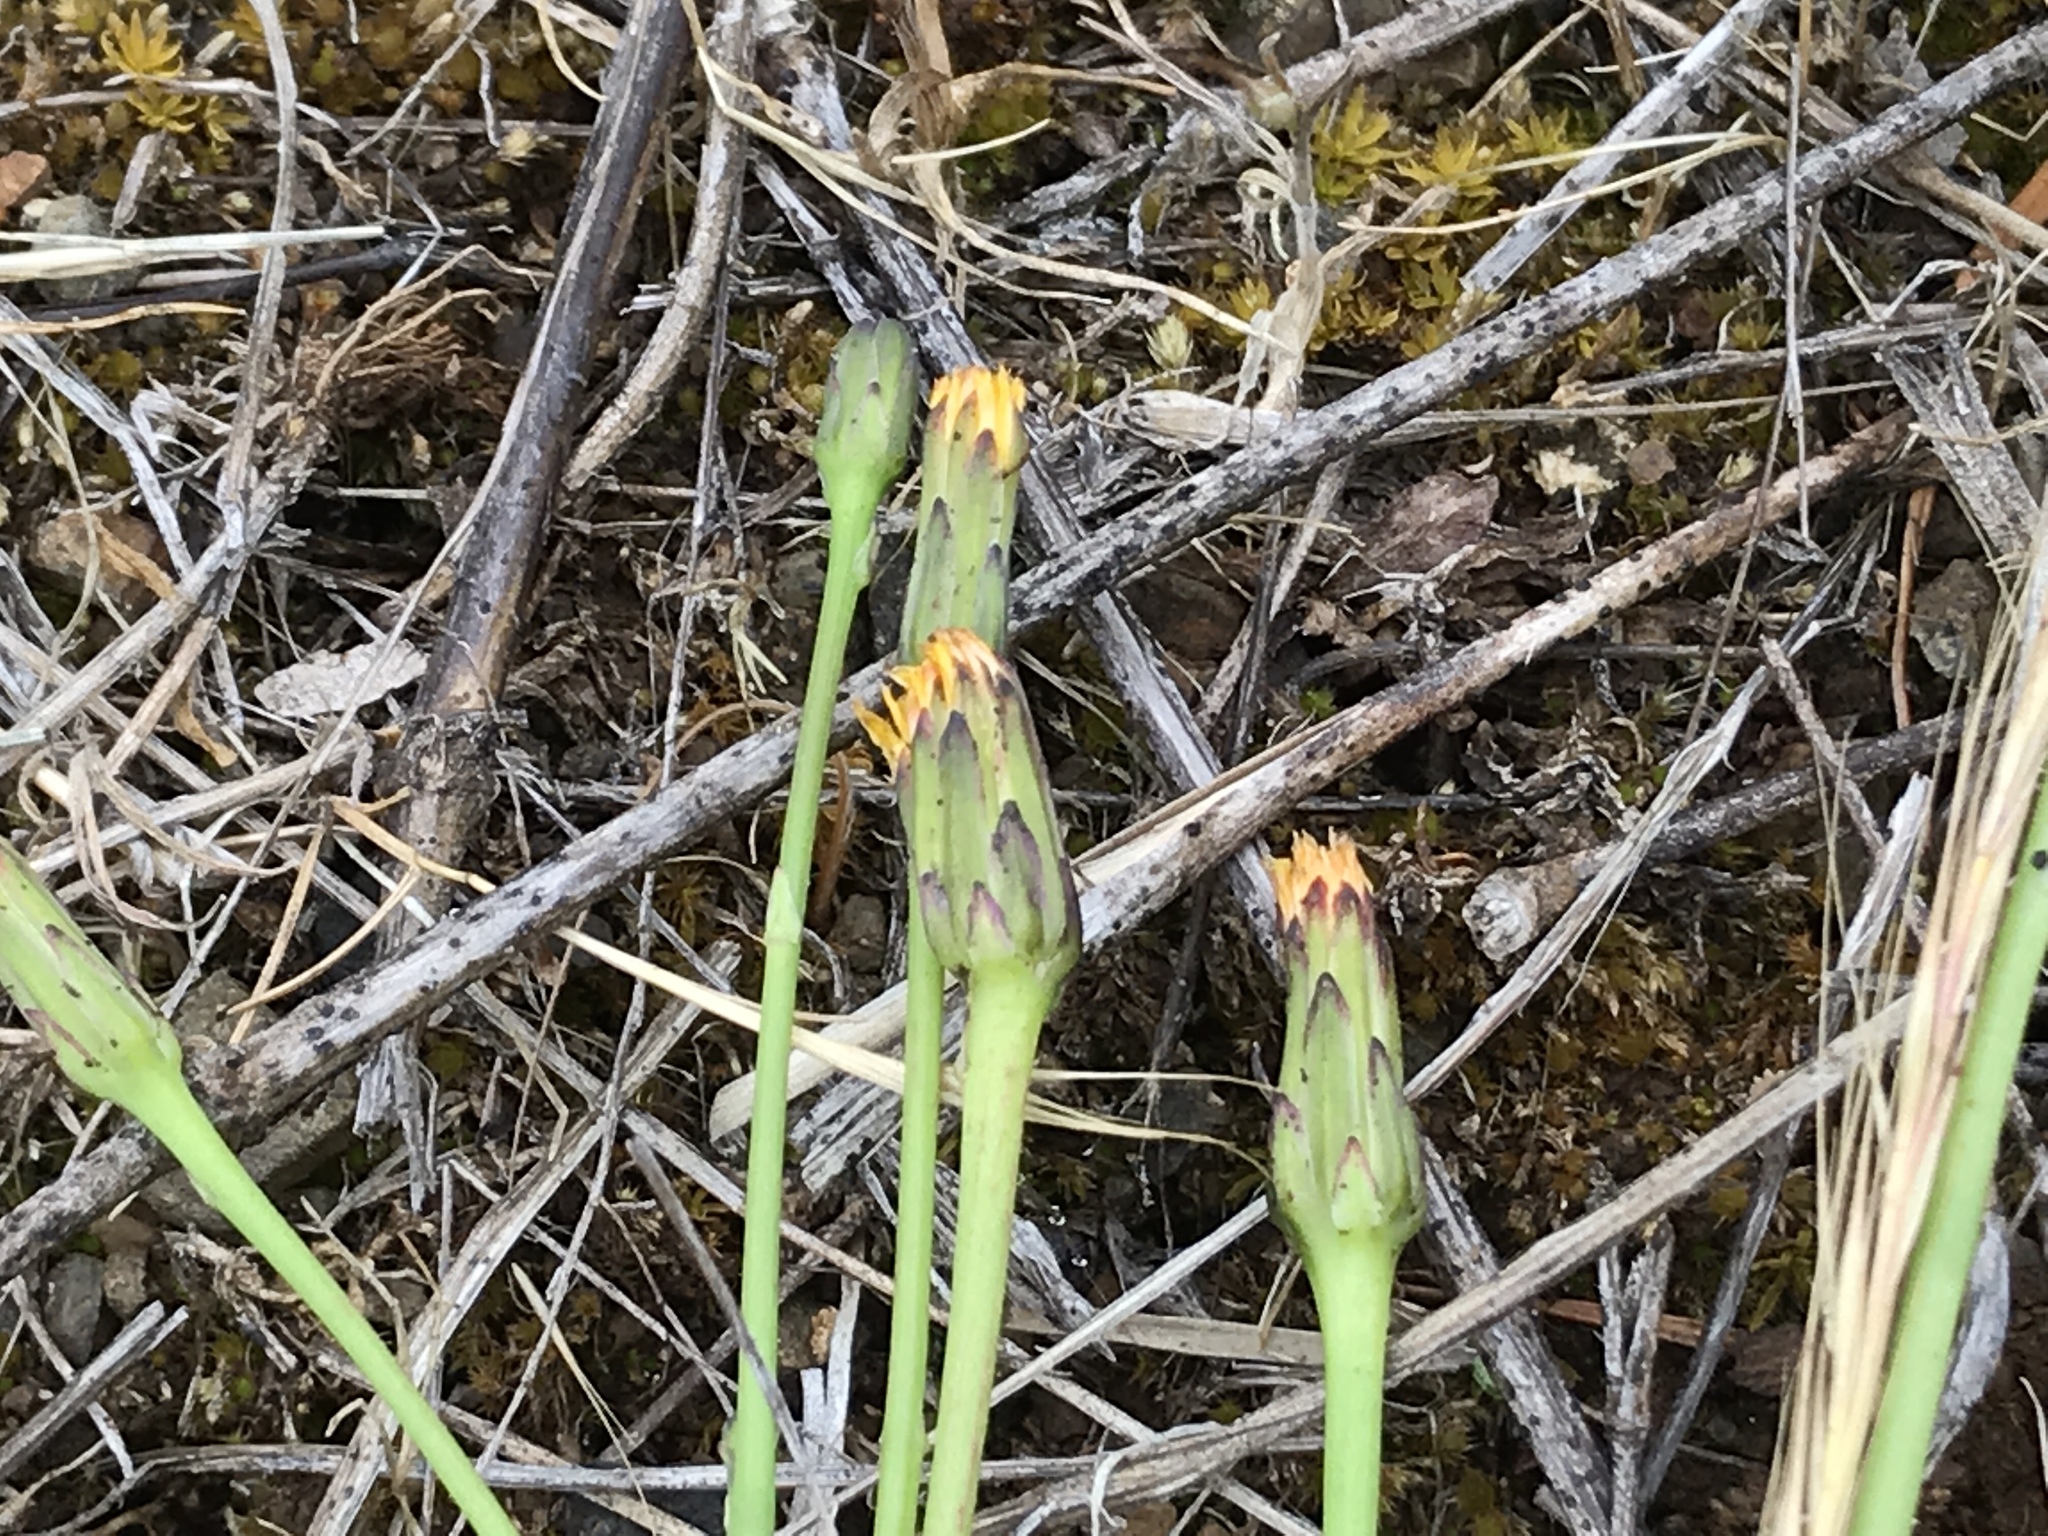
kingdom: Plantae
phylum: Tracheophyta
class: Magnoliopsida
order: Asterales
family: Asteraceae
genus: Hypochaeris
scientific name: Hypochaeris glabra
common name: Smooth catsear
